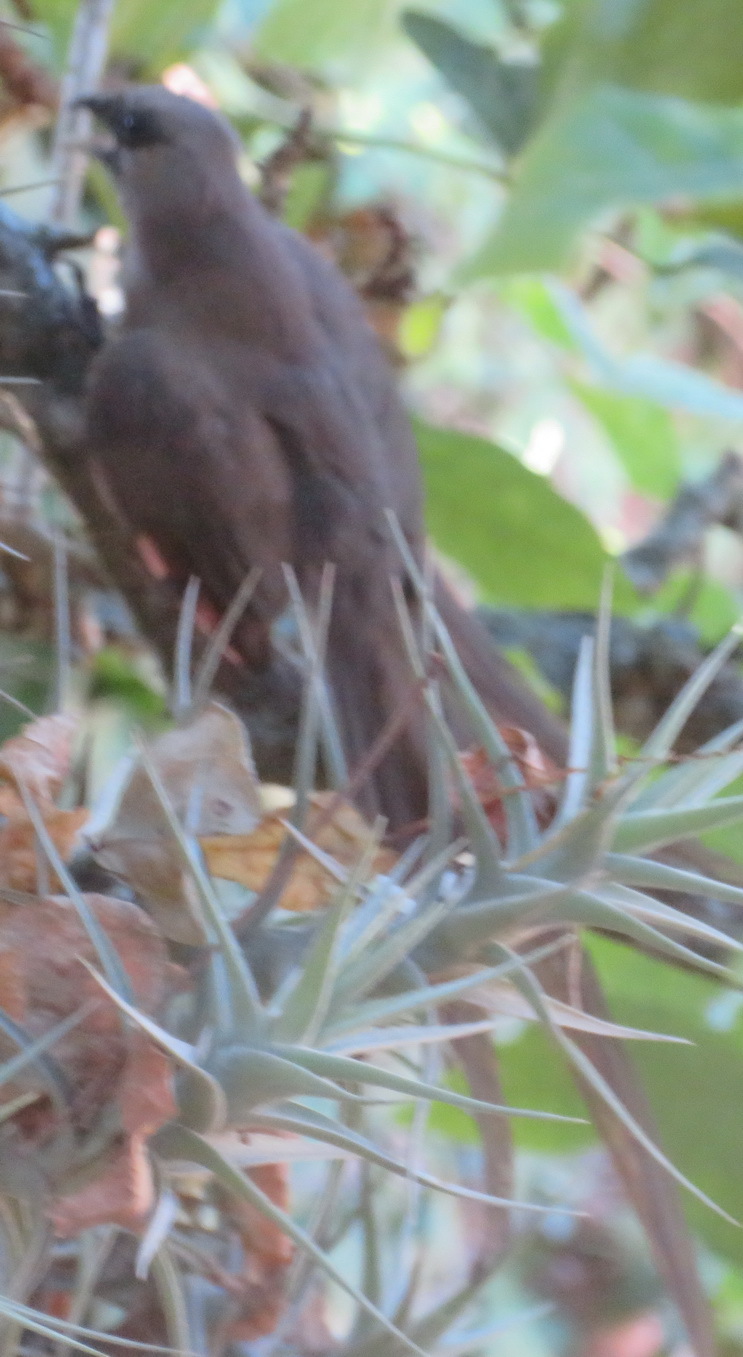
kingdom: Animalia
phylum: Chordata
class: Aves
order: Coliiformes
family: Coliidae
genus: Colius
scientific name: Colius striatus
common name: Speckled mousebird
